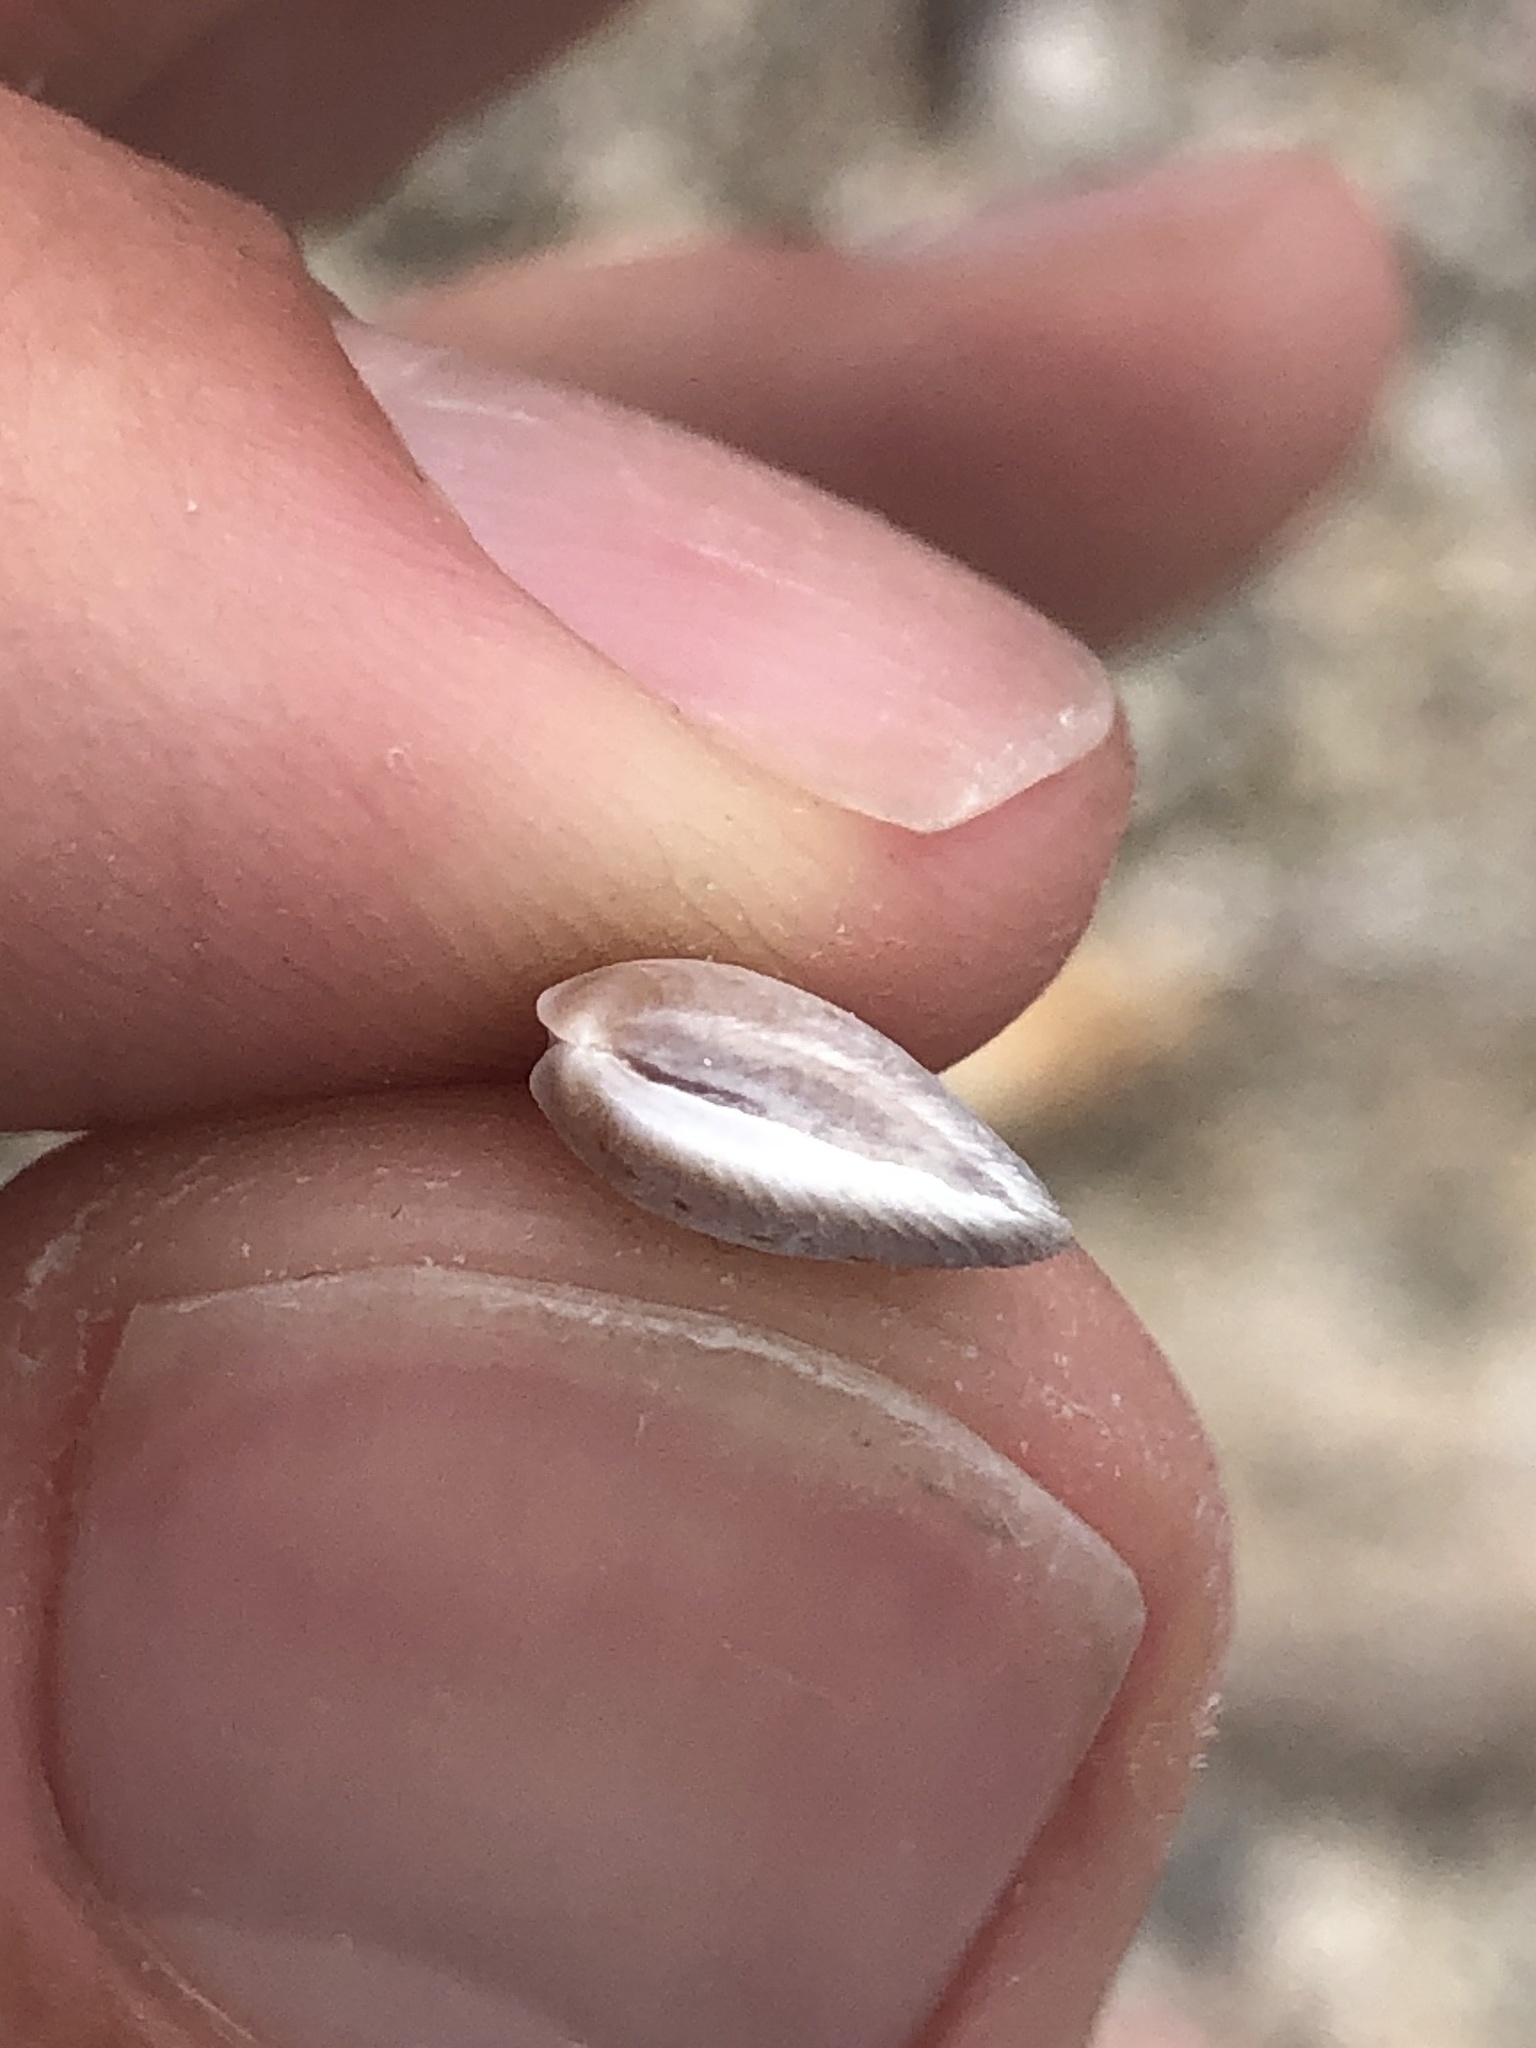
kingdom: Animalia
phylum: Mollusca
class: Bivalvia
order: Carditida
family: Crassatellidae
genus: Crassinella
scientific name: Crassinella lunulata
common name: Lunate crassinella
